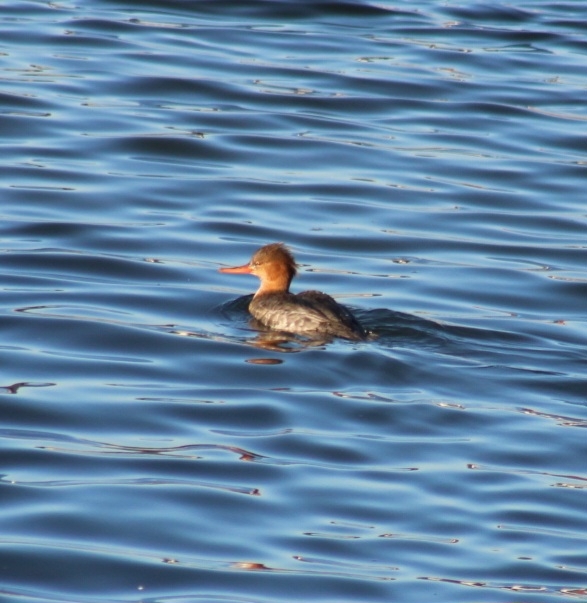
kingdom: Animalia
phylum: Chordata
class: Aves
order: Anseriformes
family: Anatidae
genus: Mergus
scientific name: Mergus serrator
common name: Red-breasted merganser
